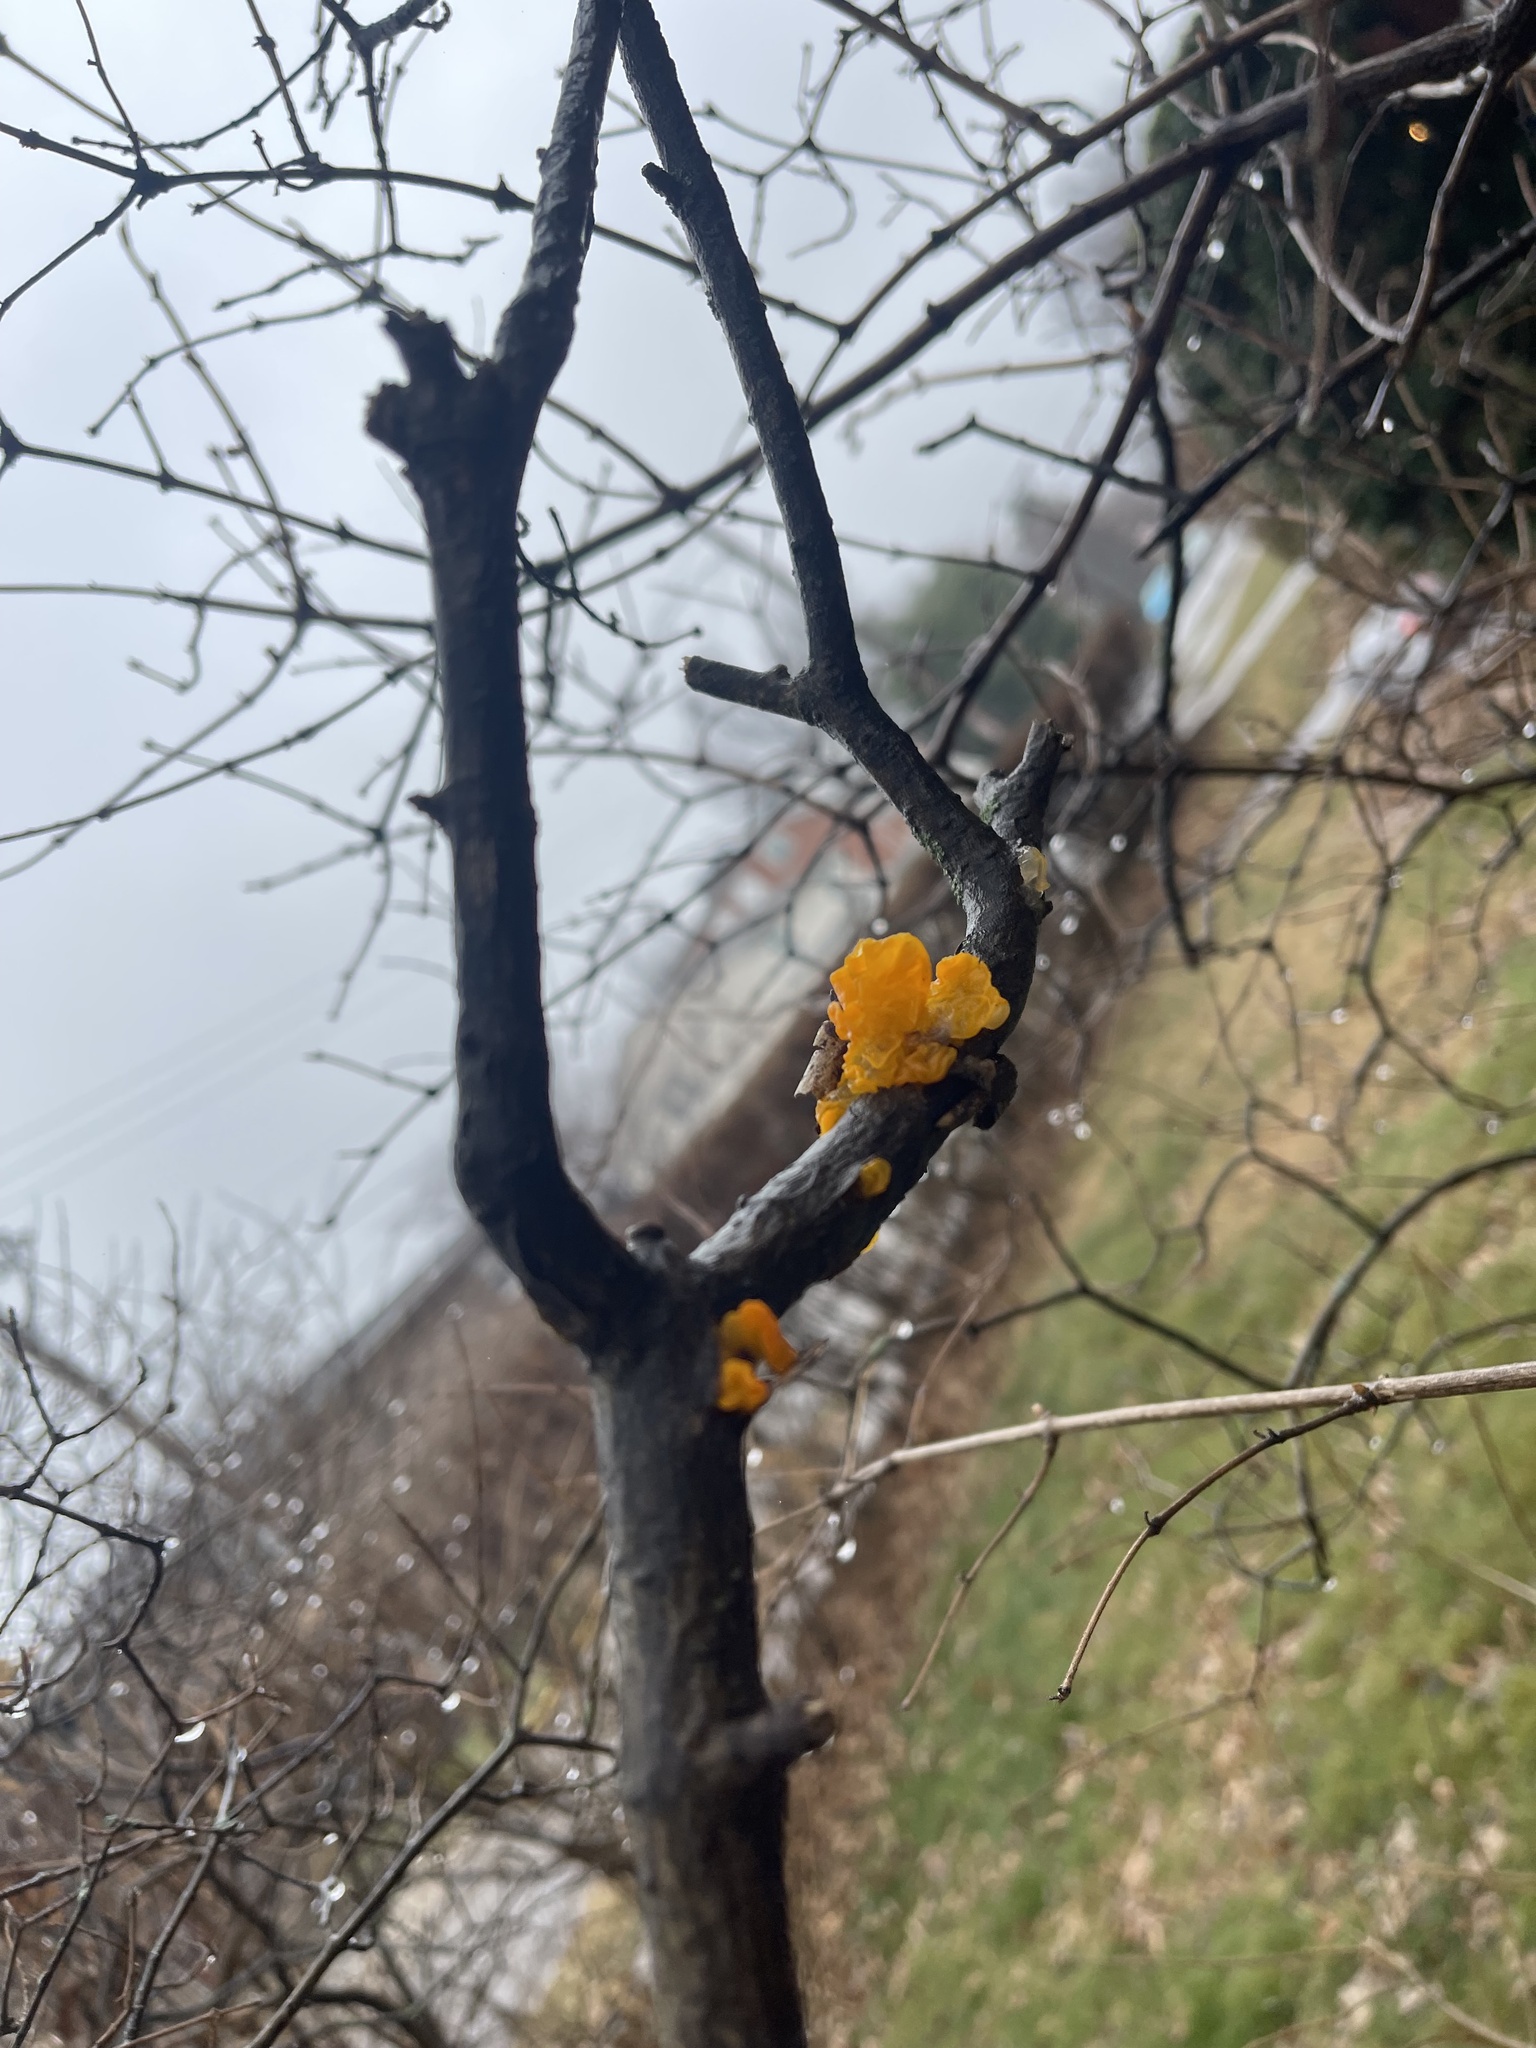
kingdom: Fungi
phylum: Basidiomycota
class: Tremellomycetes
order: Tremellales
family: Tremellaceae
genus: Tremella
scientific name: Tremella mesenterica
